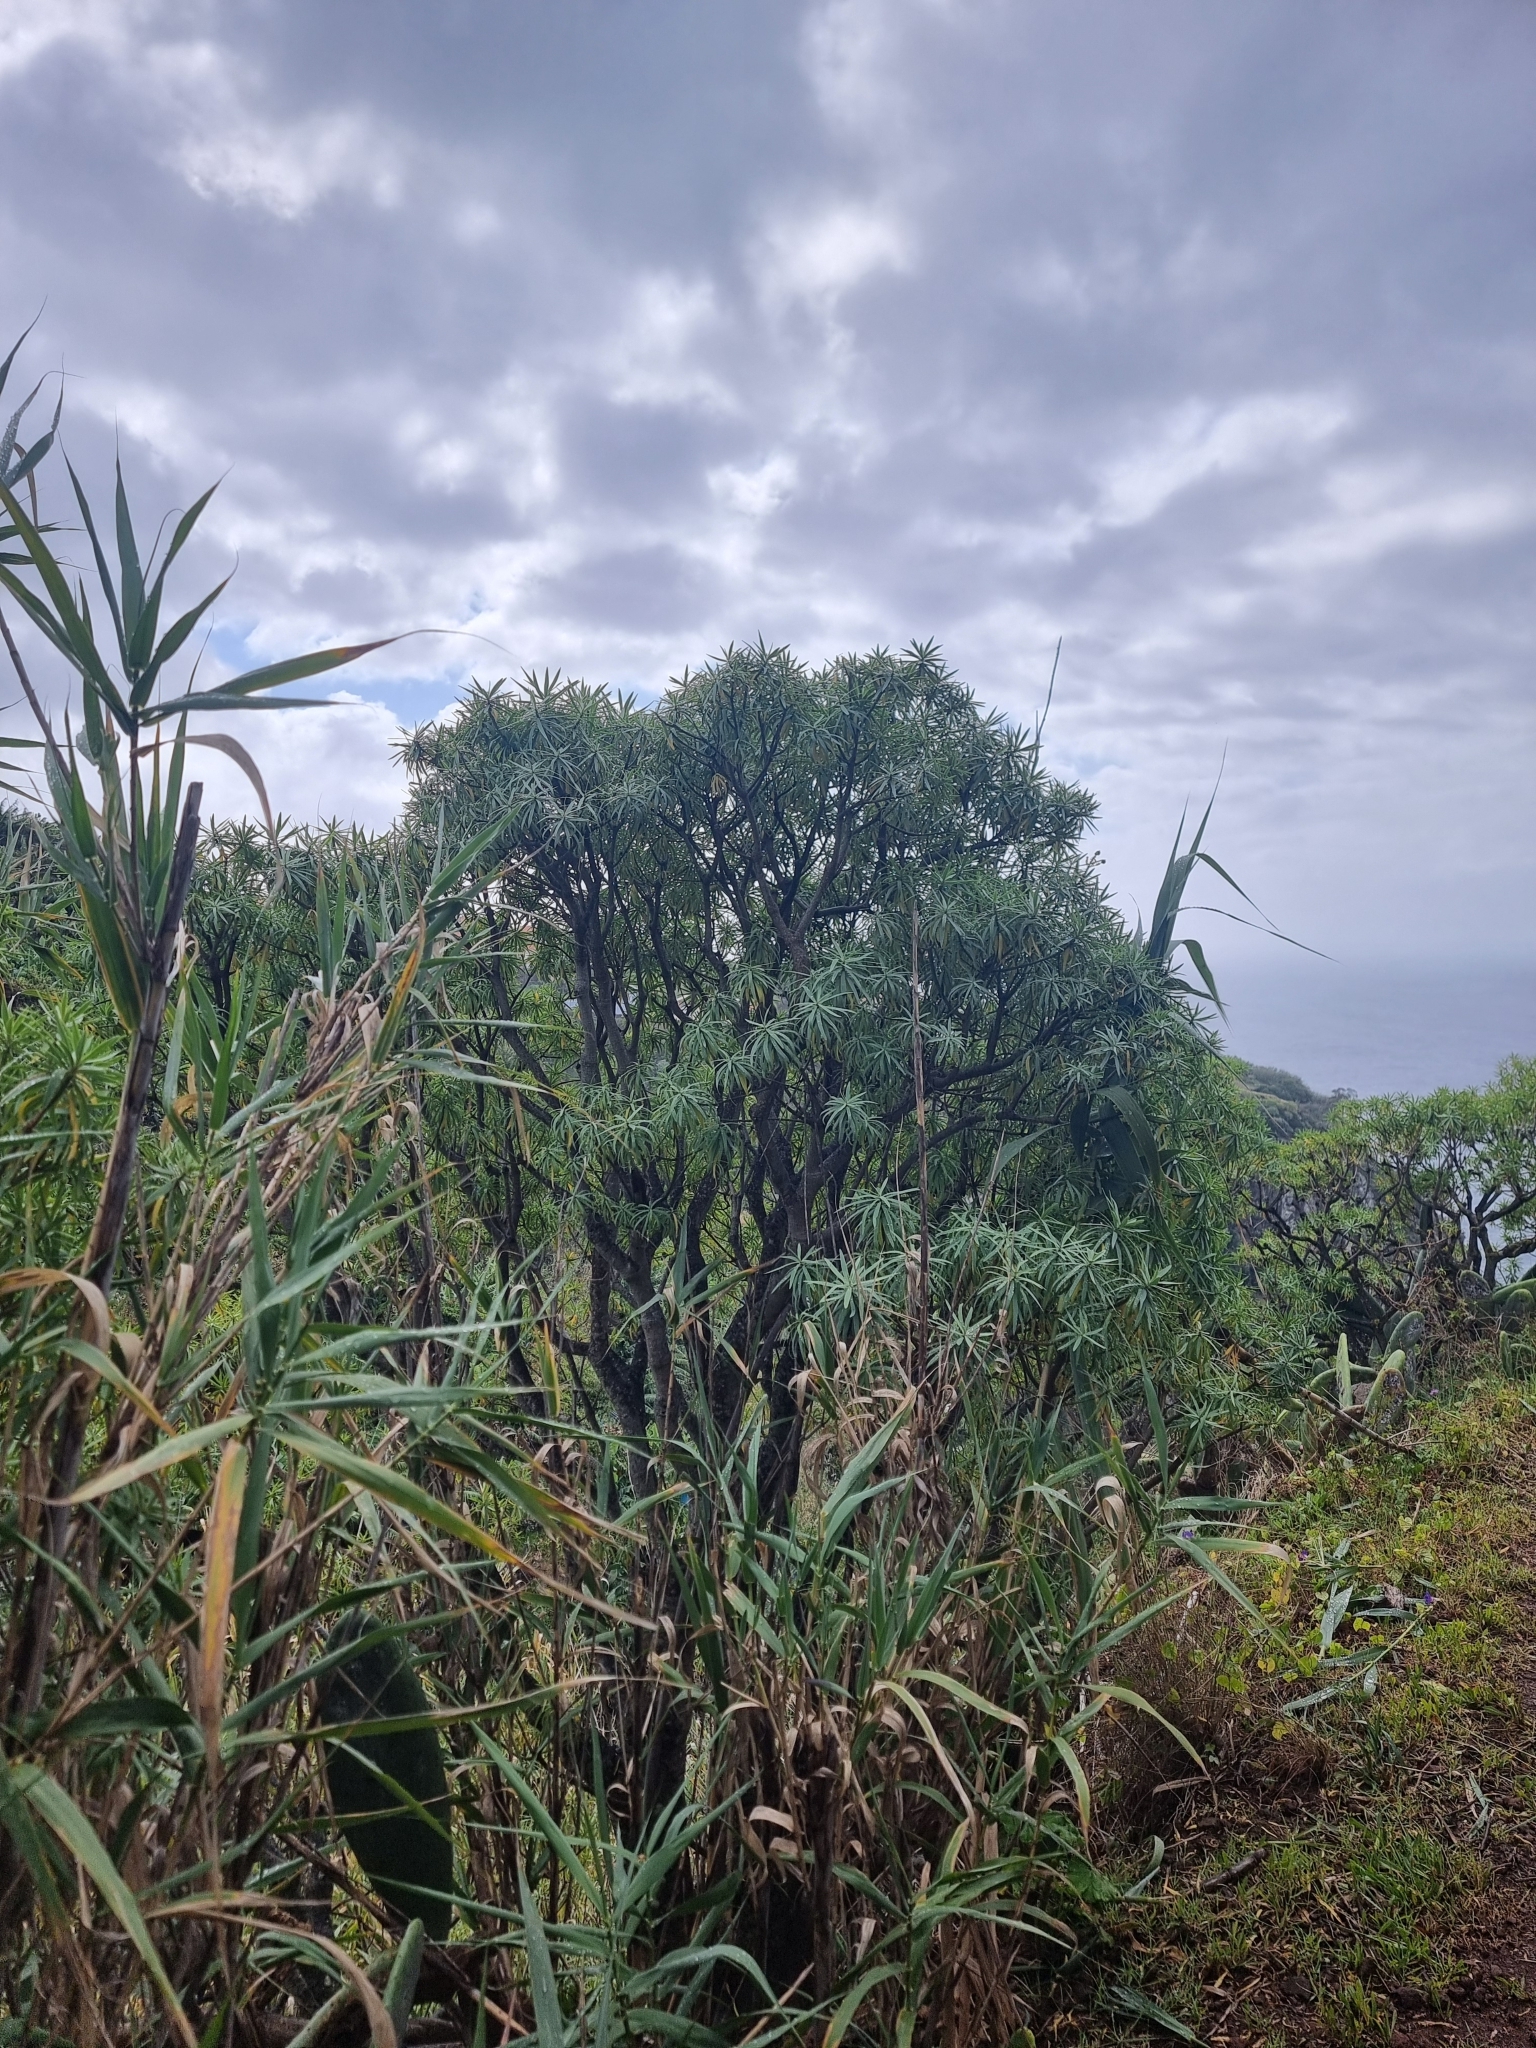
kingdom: Plantae
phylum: Tracheophyta
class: Magnoliopsida
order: Malpighiales
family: Euphorbiaceae
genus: Euphorbia
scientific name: Euphorbia piscatoria
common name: Fish-stunning spurge
